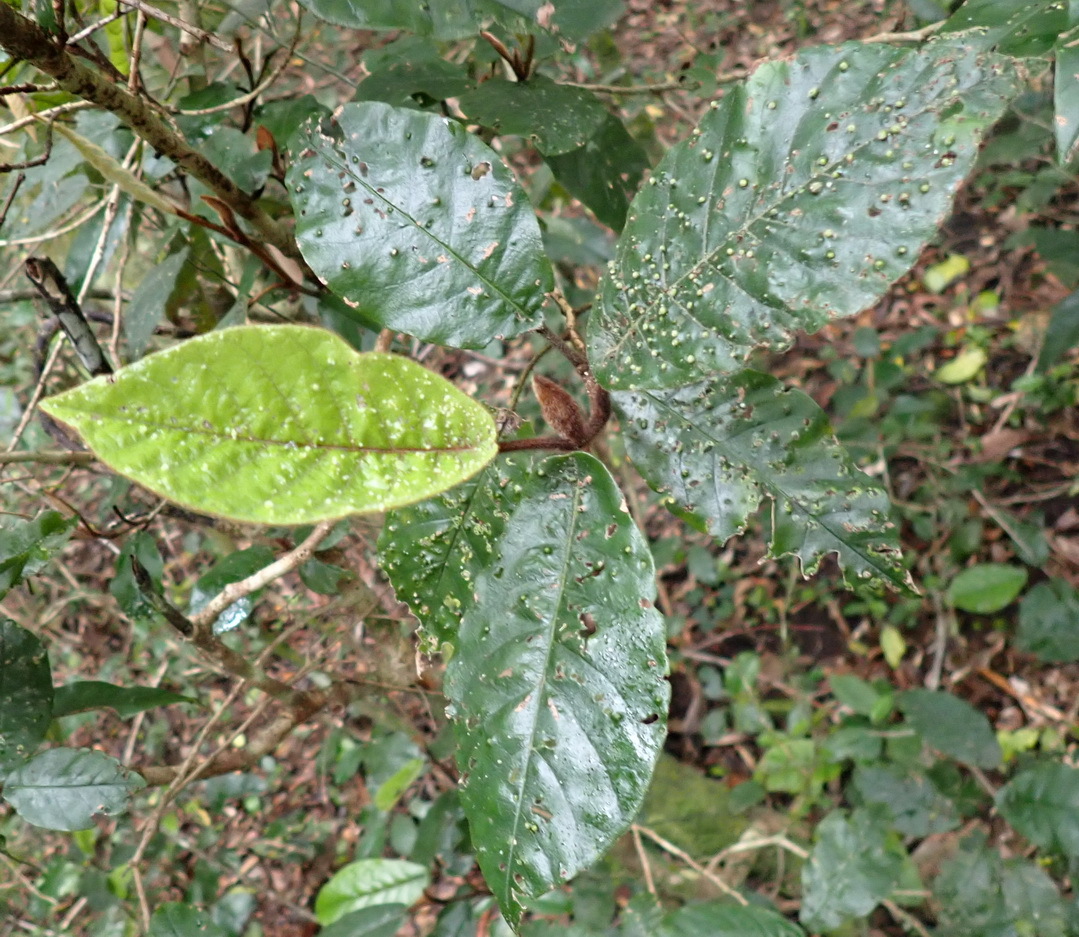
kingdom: Plantae
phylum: Tracheophyta
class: Magnoliopsida
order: Saxifragales
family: Hamamelidaceae
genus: Trichocladus
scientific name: Trichocladus crinitus
